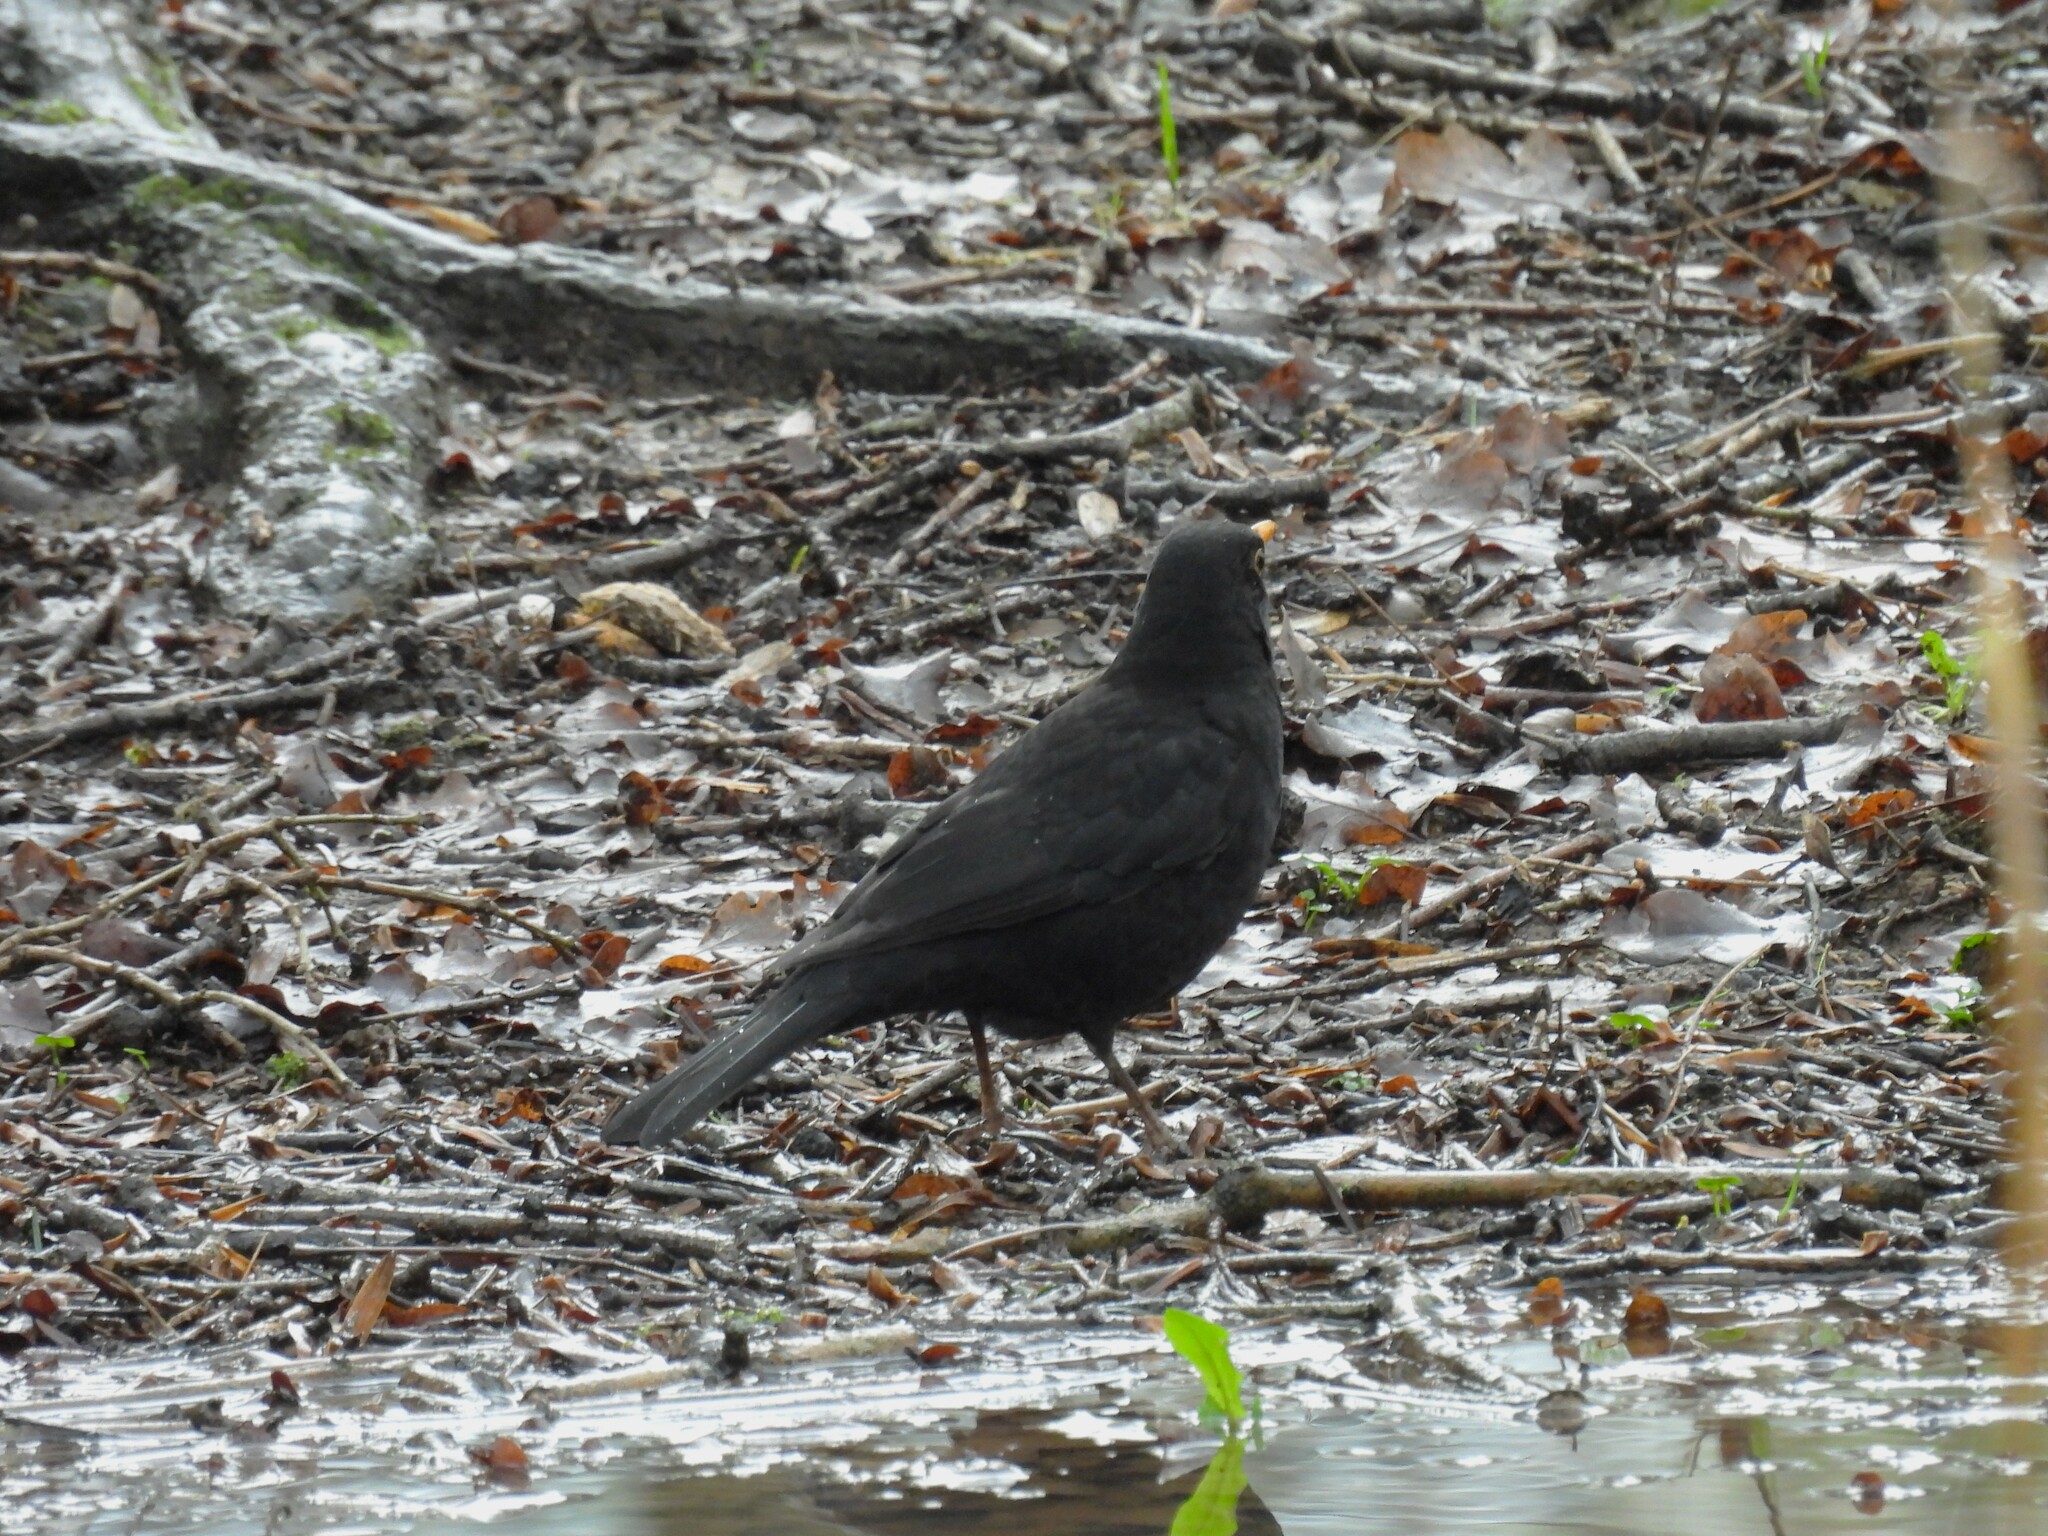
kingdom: Animalia
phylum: Chordata
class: Aves
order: Passeriformes
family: Turdidae
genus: Turdus
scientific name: Turdus merula
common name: Common blackbird
